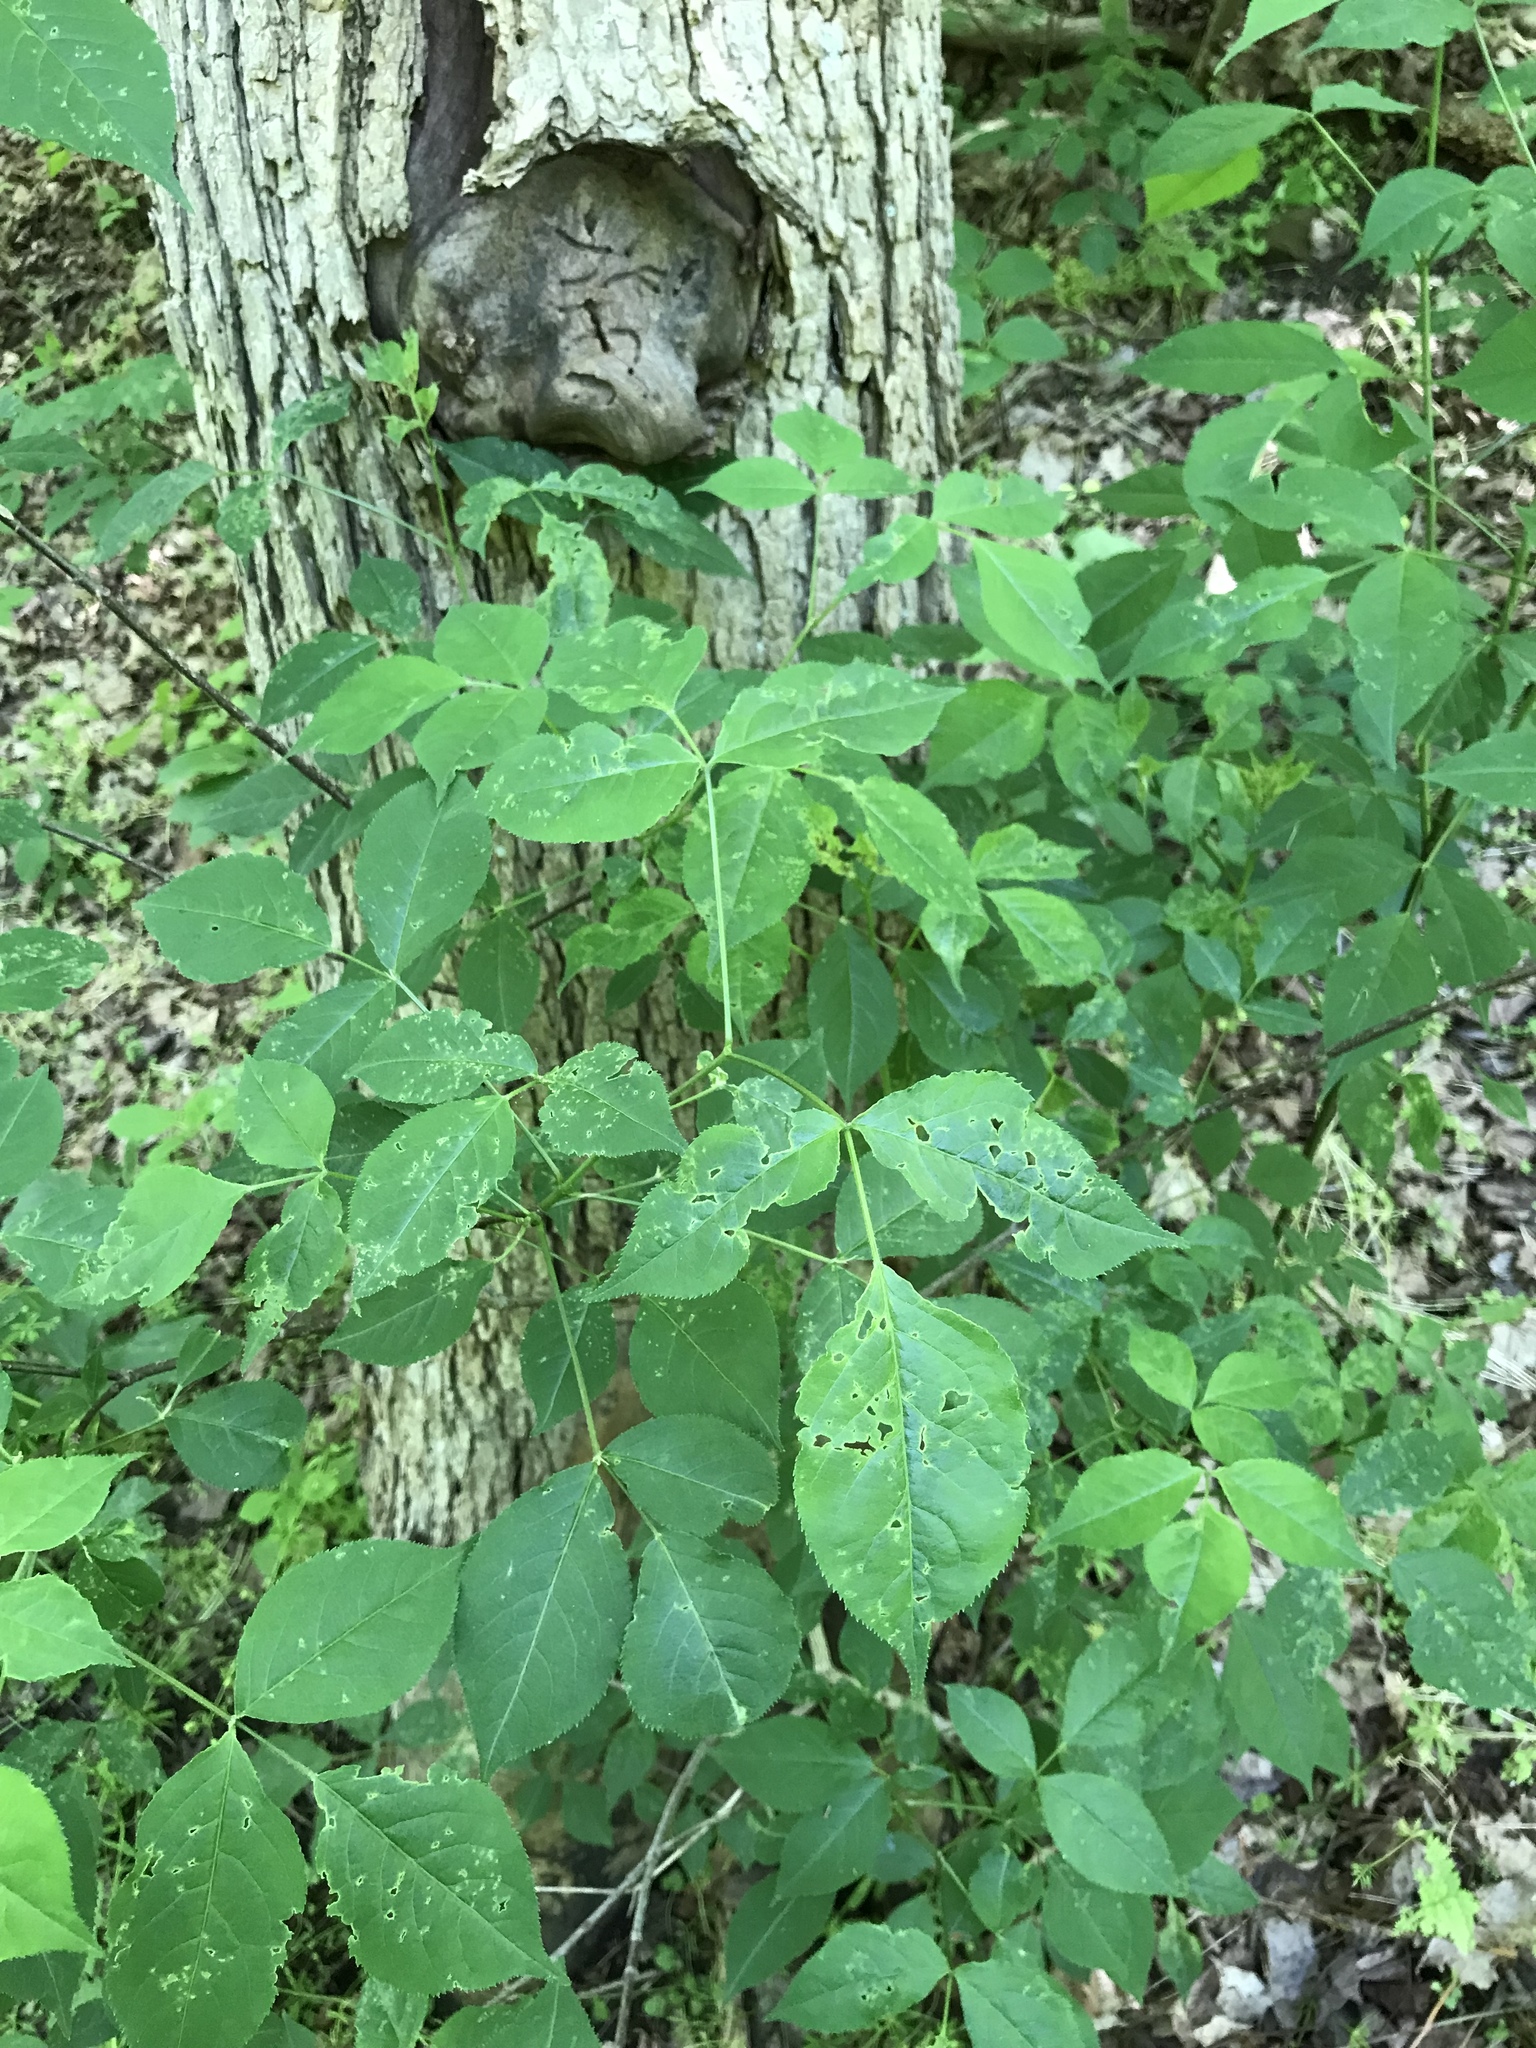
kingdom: Plantae
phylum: Tracheophyta
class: Magnoliopsida
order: Crossosomatales
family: Staphyleaceae
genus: Staphylea
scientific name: Staphylea trifolia
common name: American bladdernut
